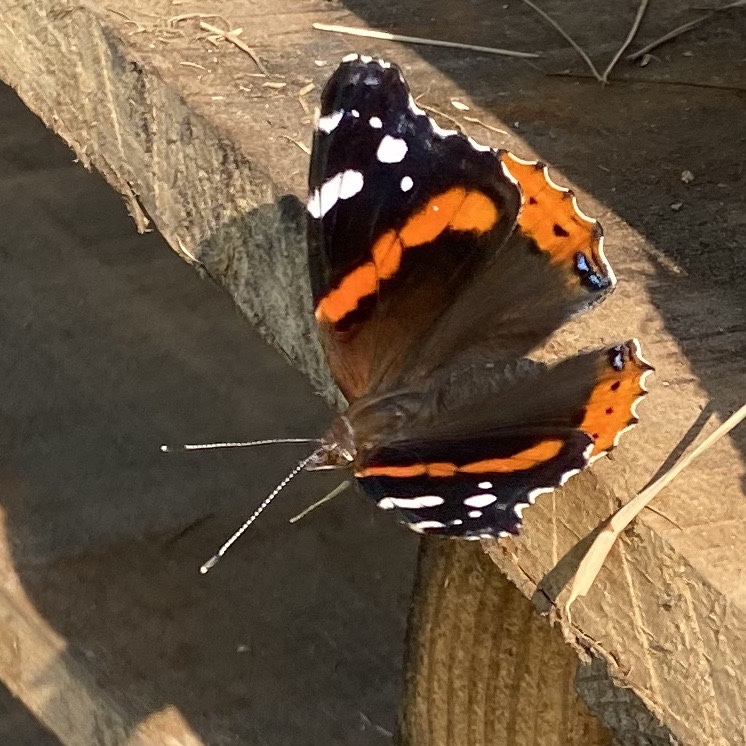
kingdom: Animalia
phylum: Arthropoda
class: Insecta
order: Lepidoptera
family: Nymphalidae
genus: Vanessa
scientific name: Vanessa atalanta
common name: Red admiral
